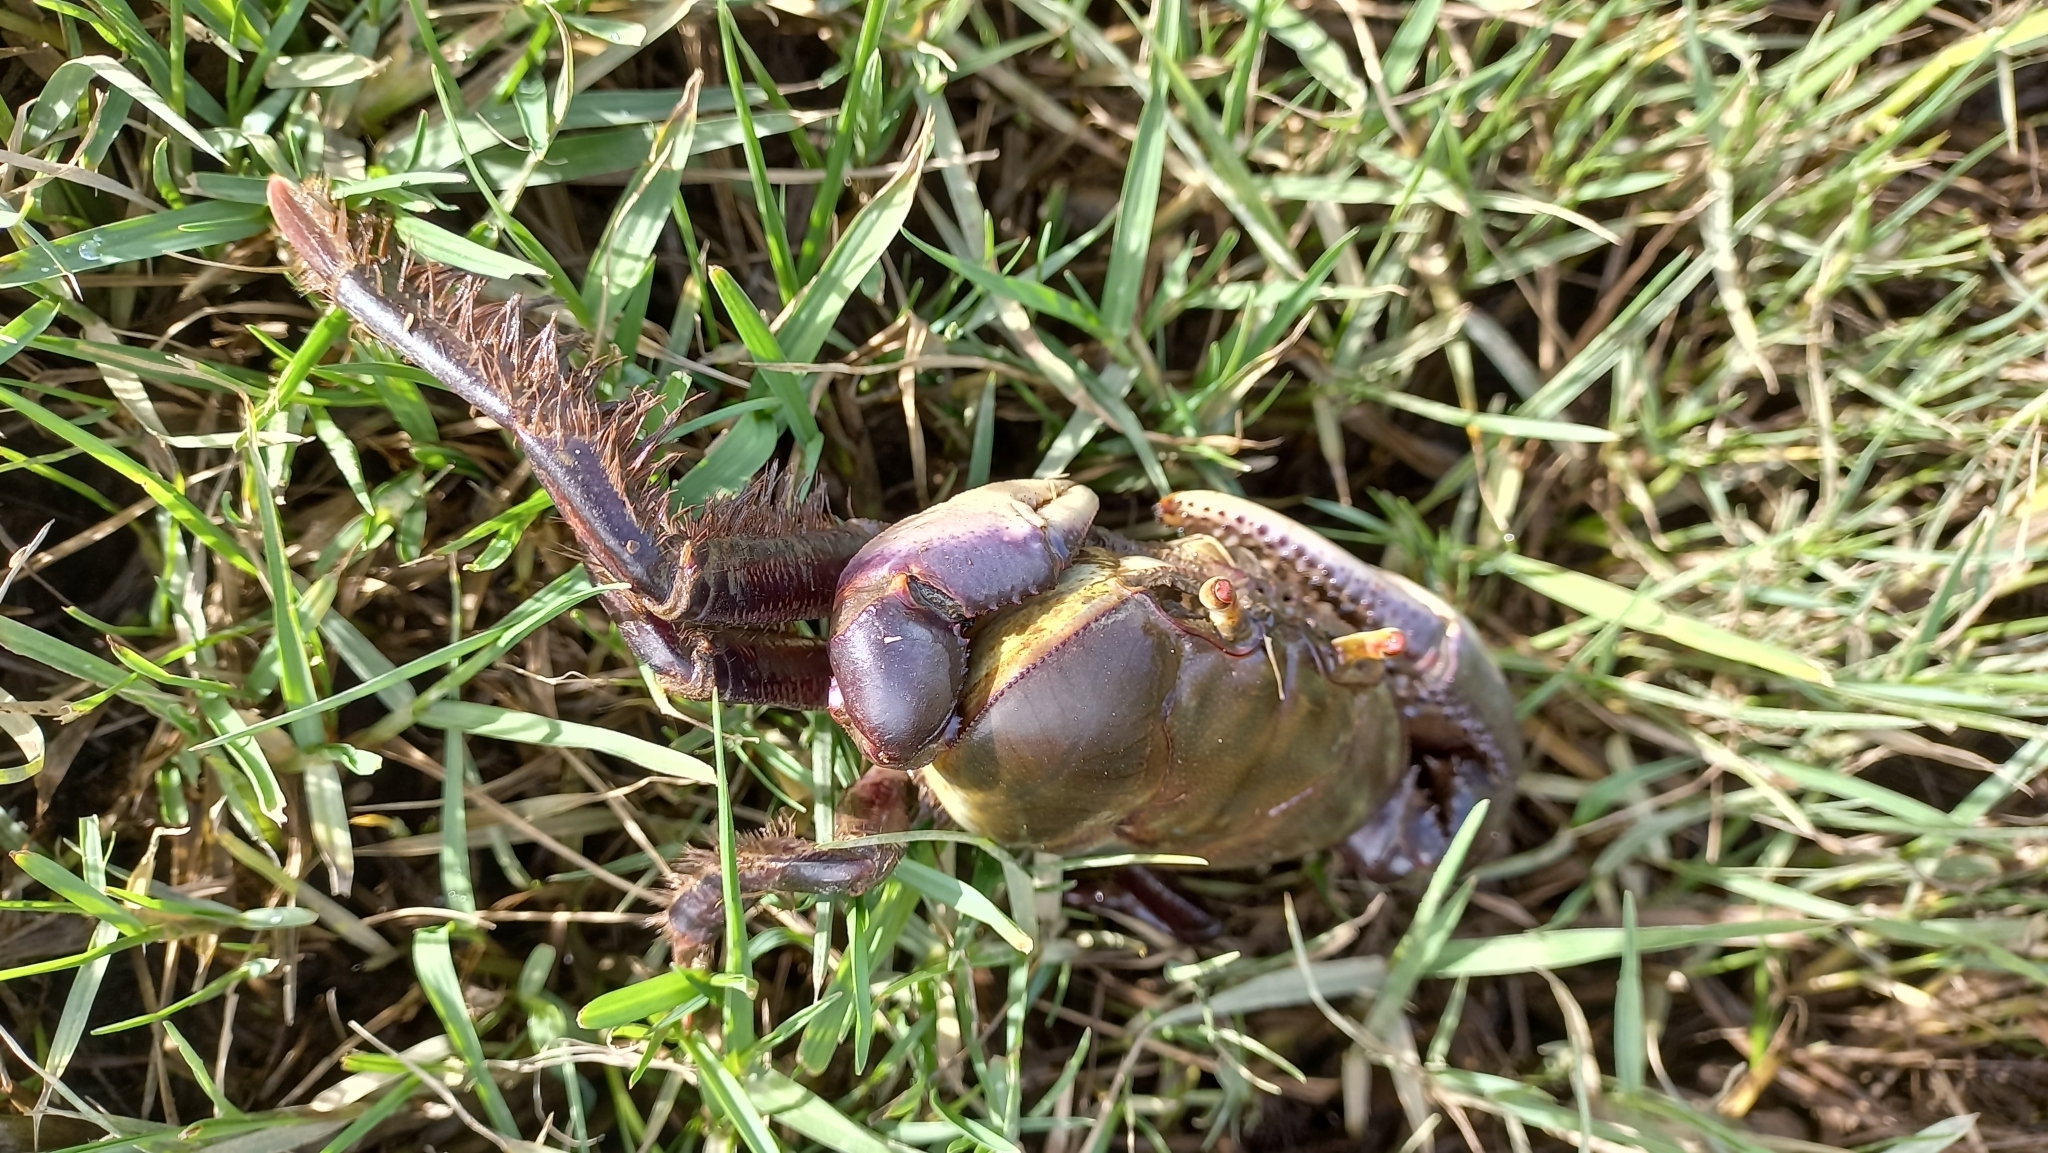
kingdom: Animalia
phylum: Arthropoda
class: Malacostraca
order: Decapoda
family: Ocypodidae
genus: Ucides
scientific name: Ucides cordatus
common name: Swamp ghost crab
